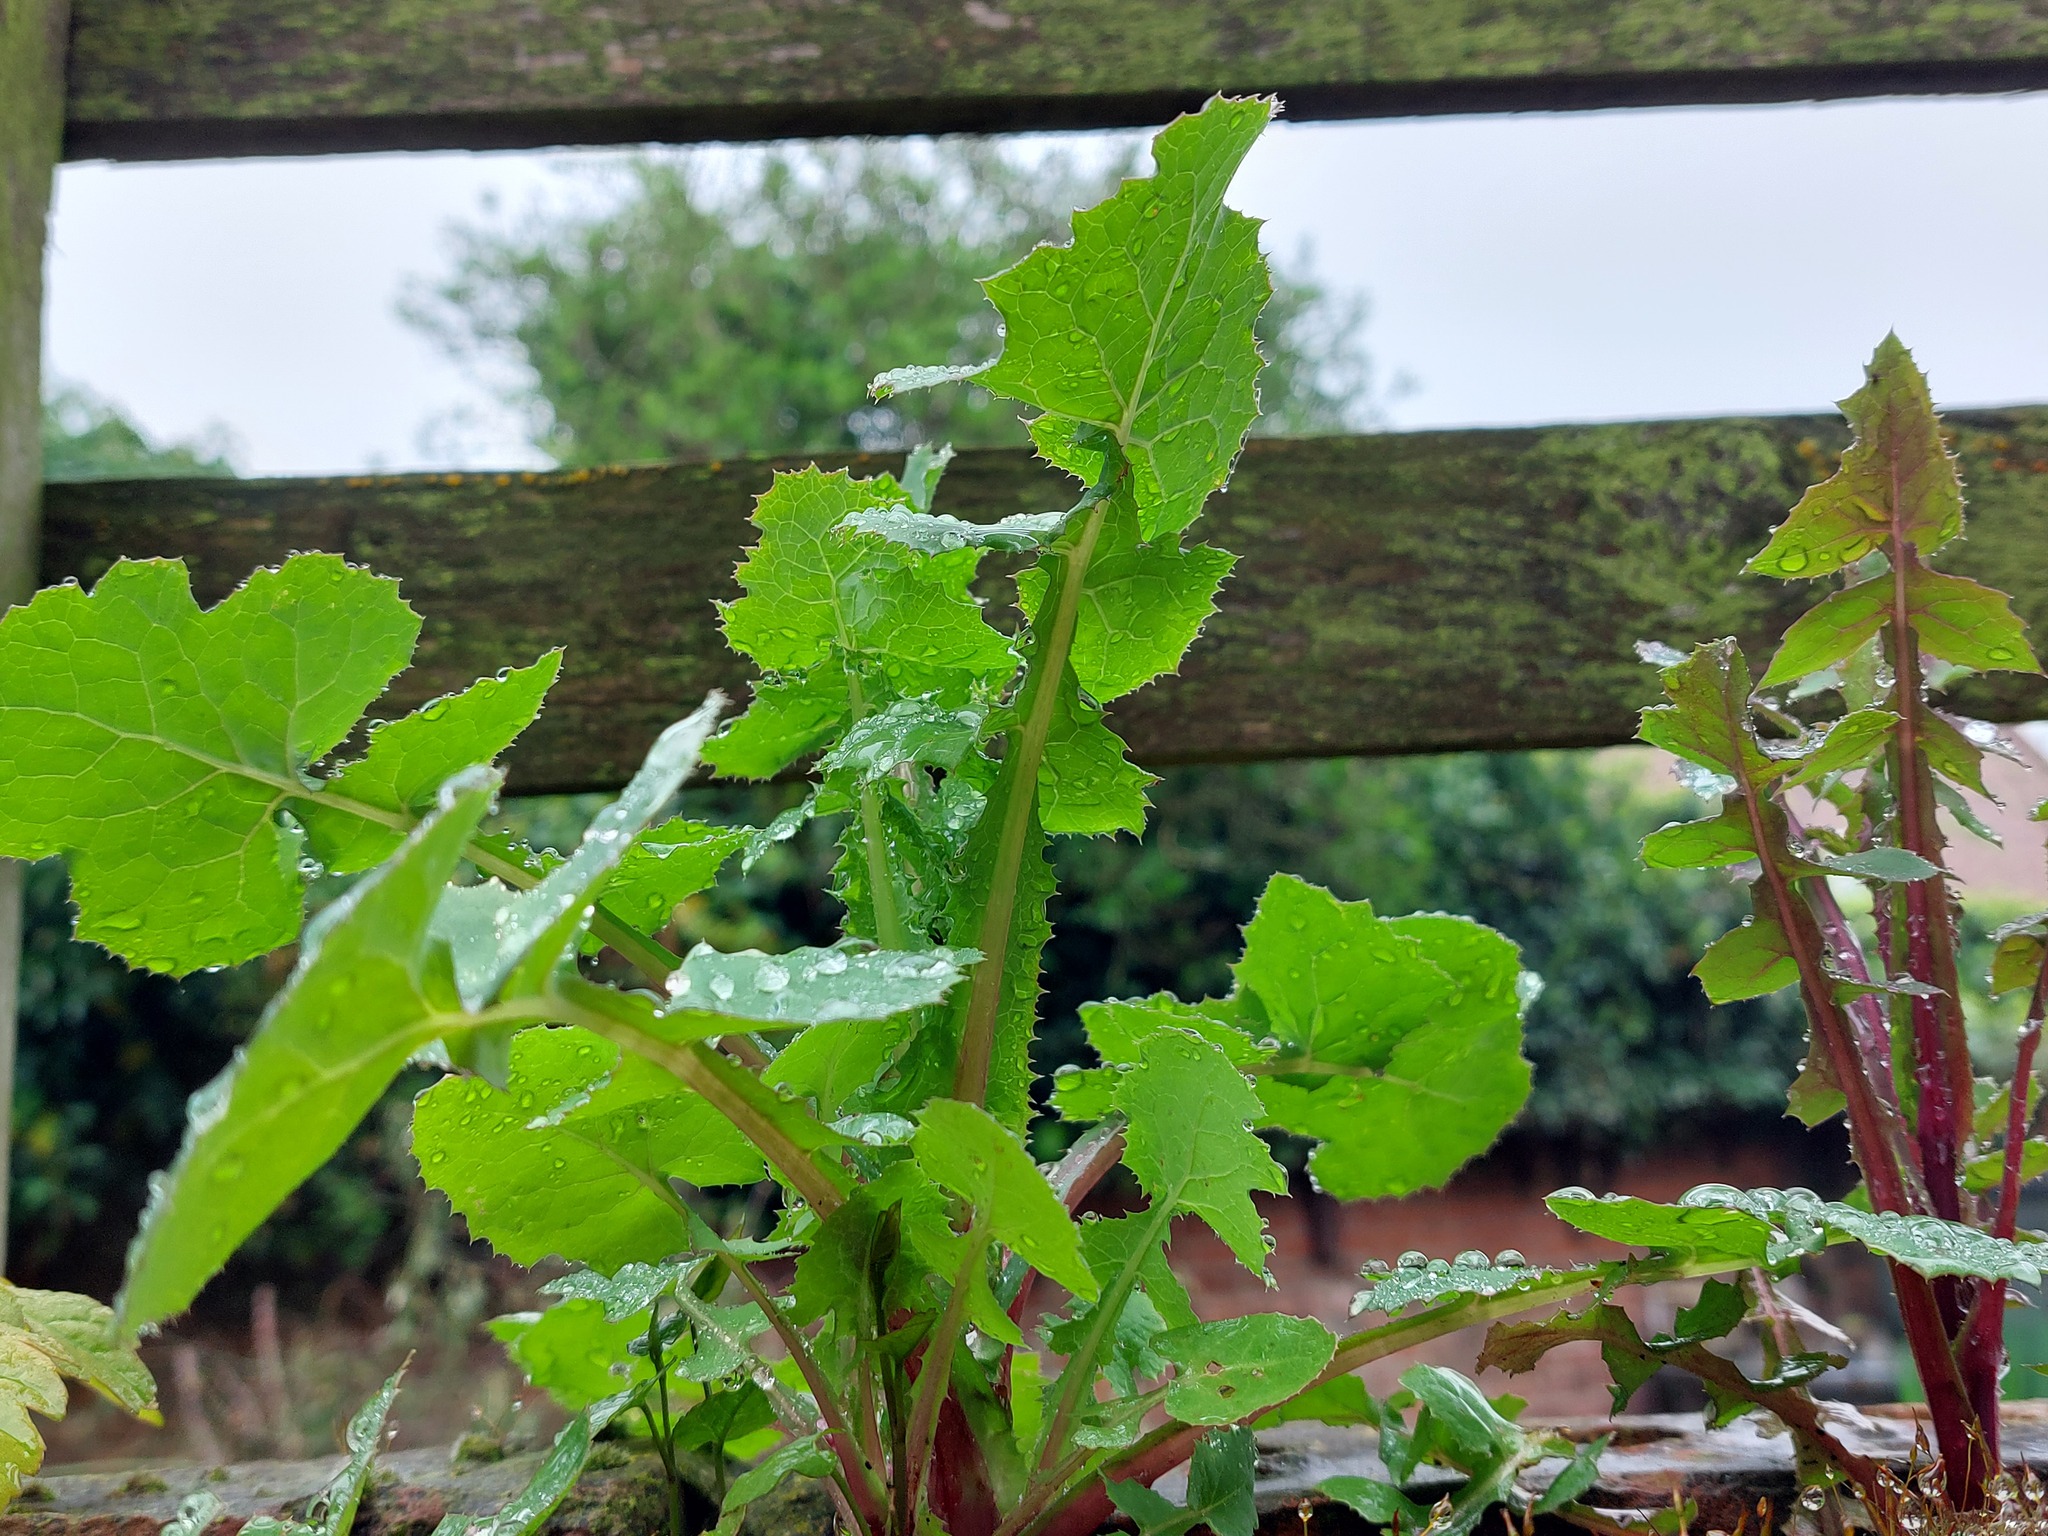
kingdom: Plantae
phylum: Tracheophyta
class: Magnoliopsida
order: Asterales
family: Asteraceae
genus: Sonchus
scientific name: Sonchus oleraceus
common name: Common sowthistle
